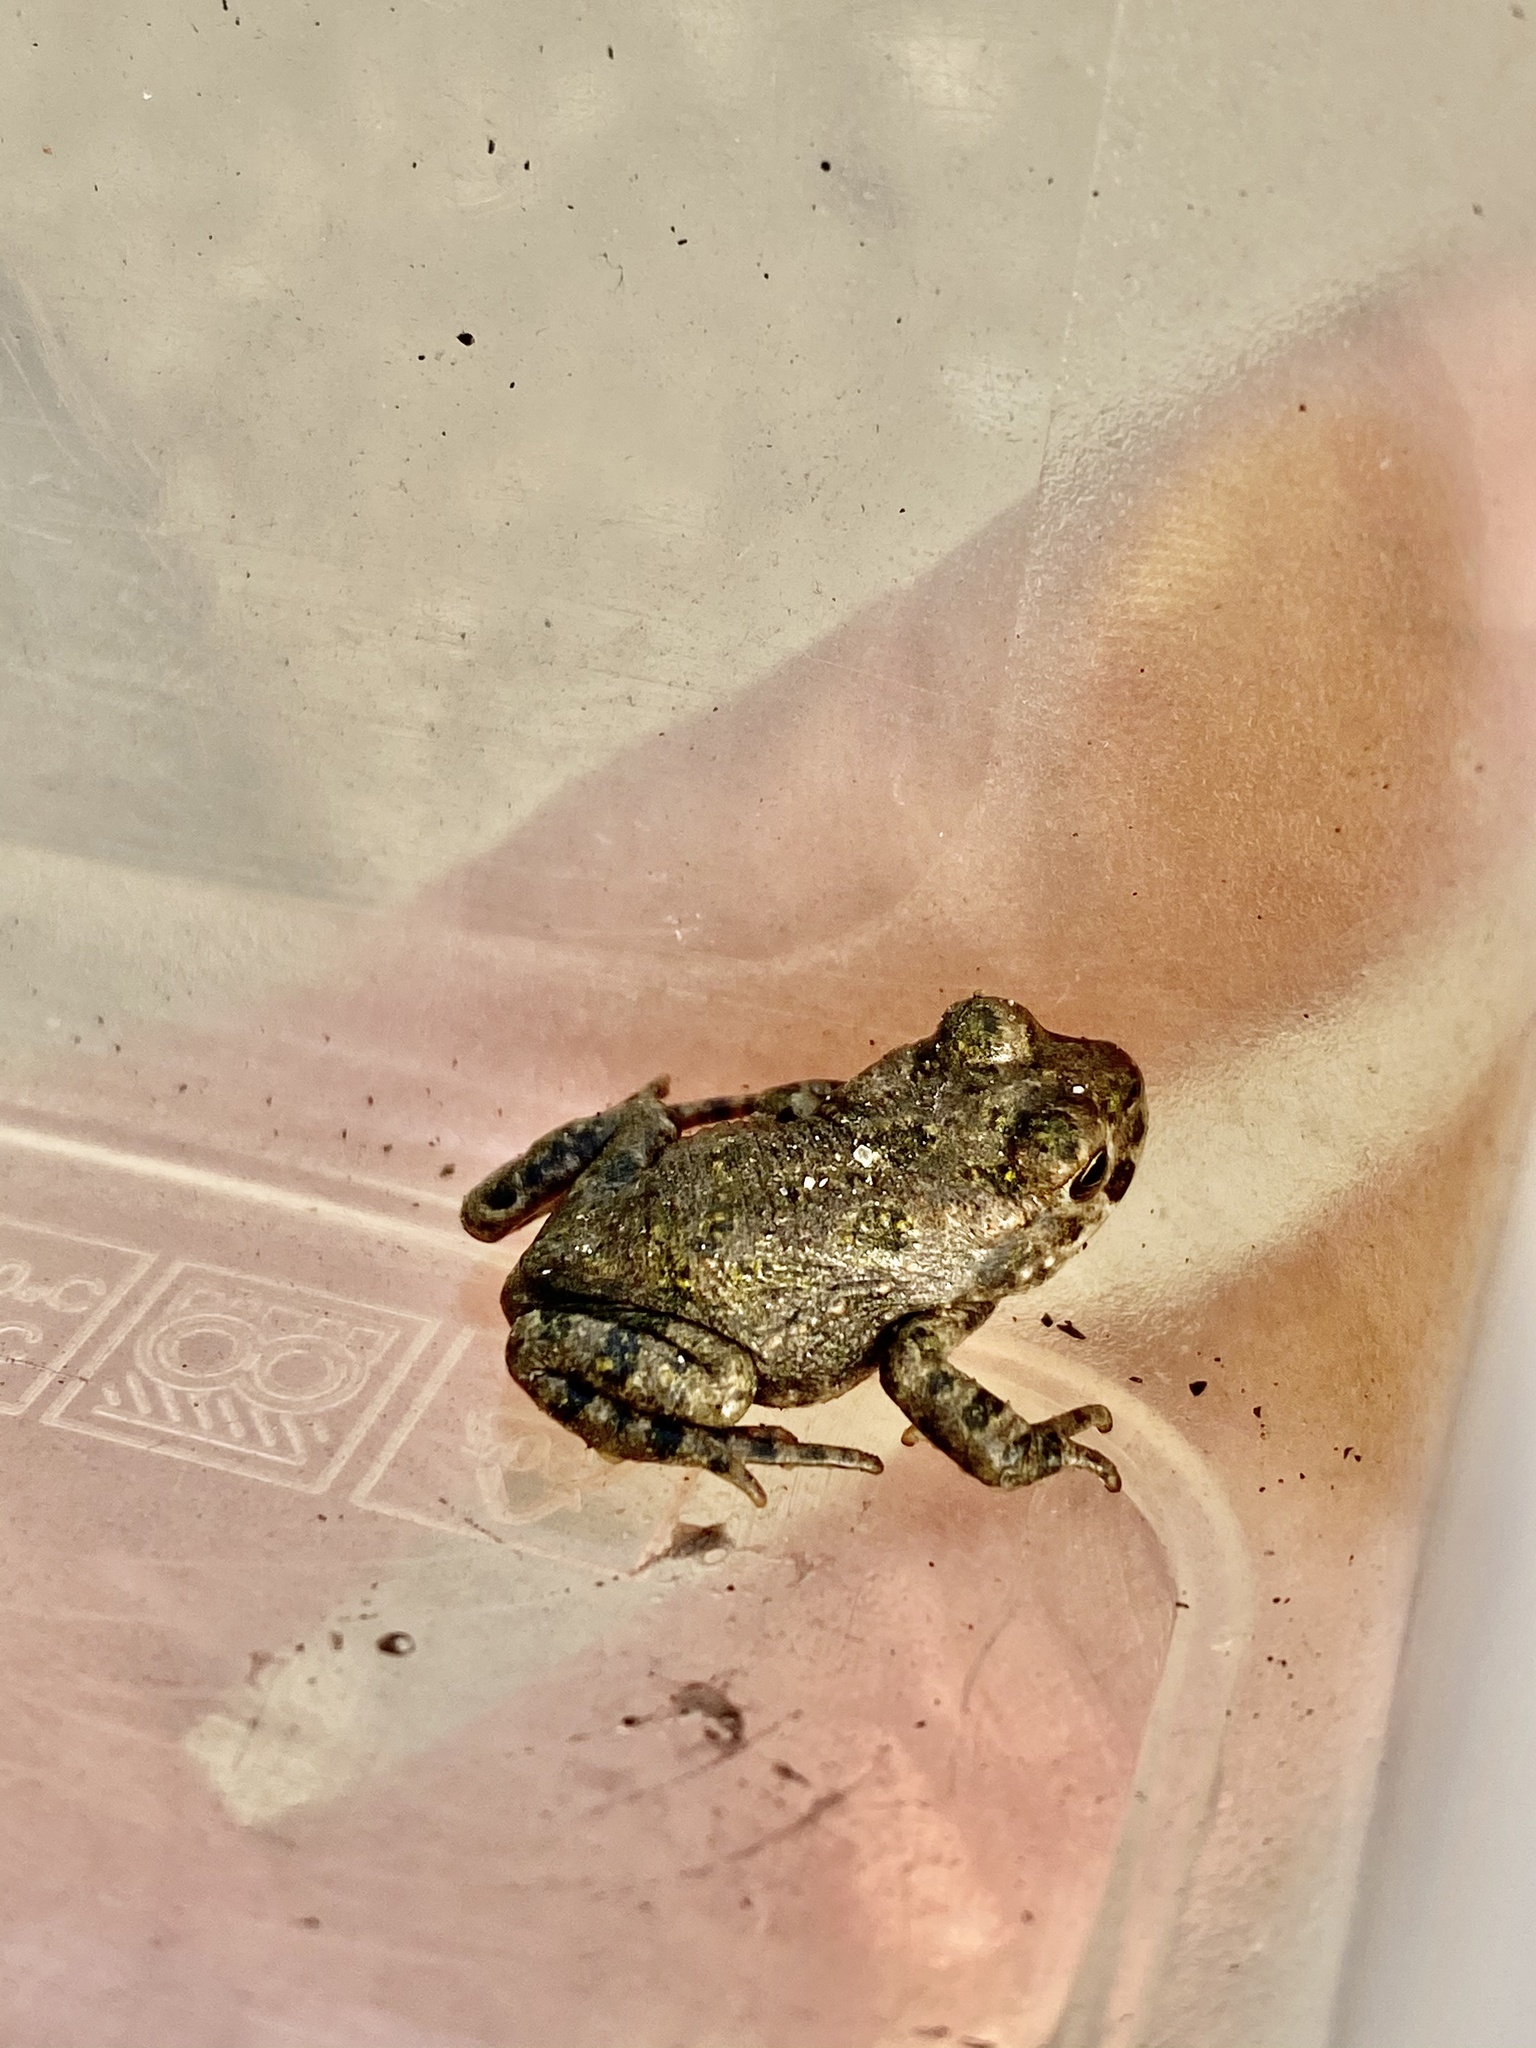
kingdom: Animalia
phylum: Chordata
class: Amphibia
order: Anura
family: Bufonidae
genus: Bufotes
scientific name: Bufotes viridis
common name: European green toad
